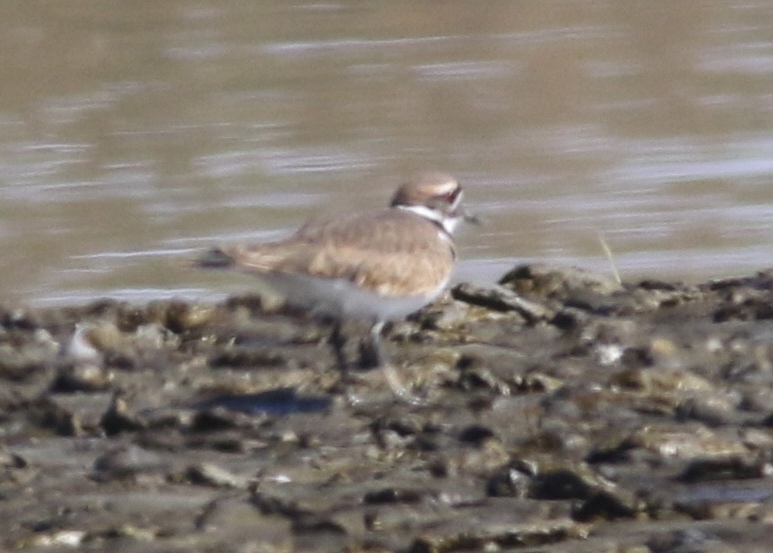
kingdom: Animalia
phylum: Chordata
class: Aves
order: Charadriiformes
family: Charadriidae
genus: Charadrius
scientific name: Charadrius vociferus
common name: Killdeer
